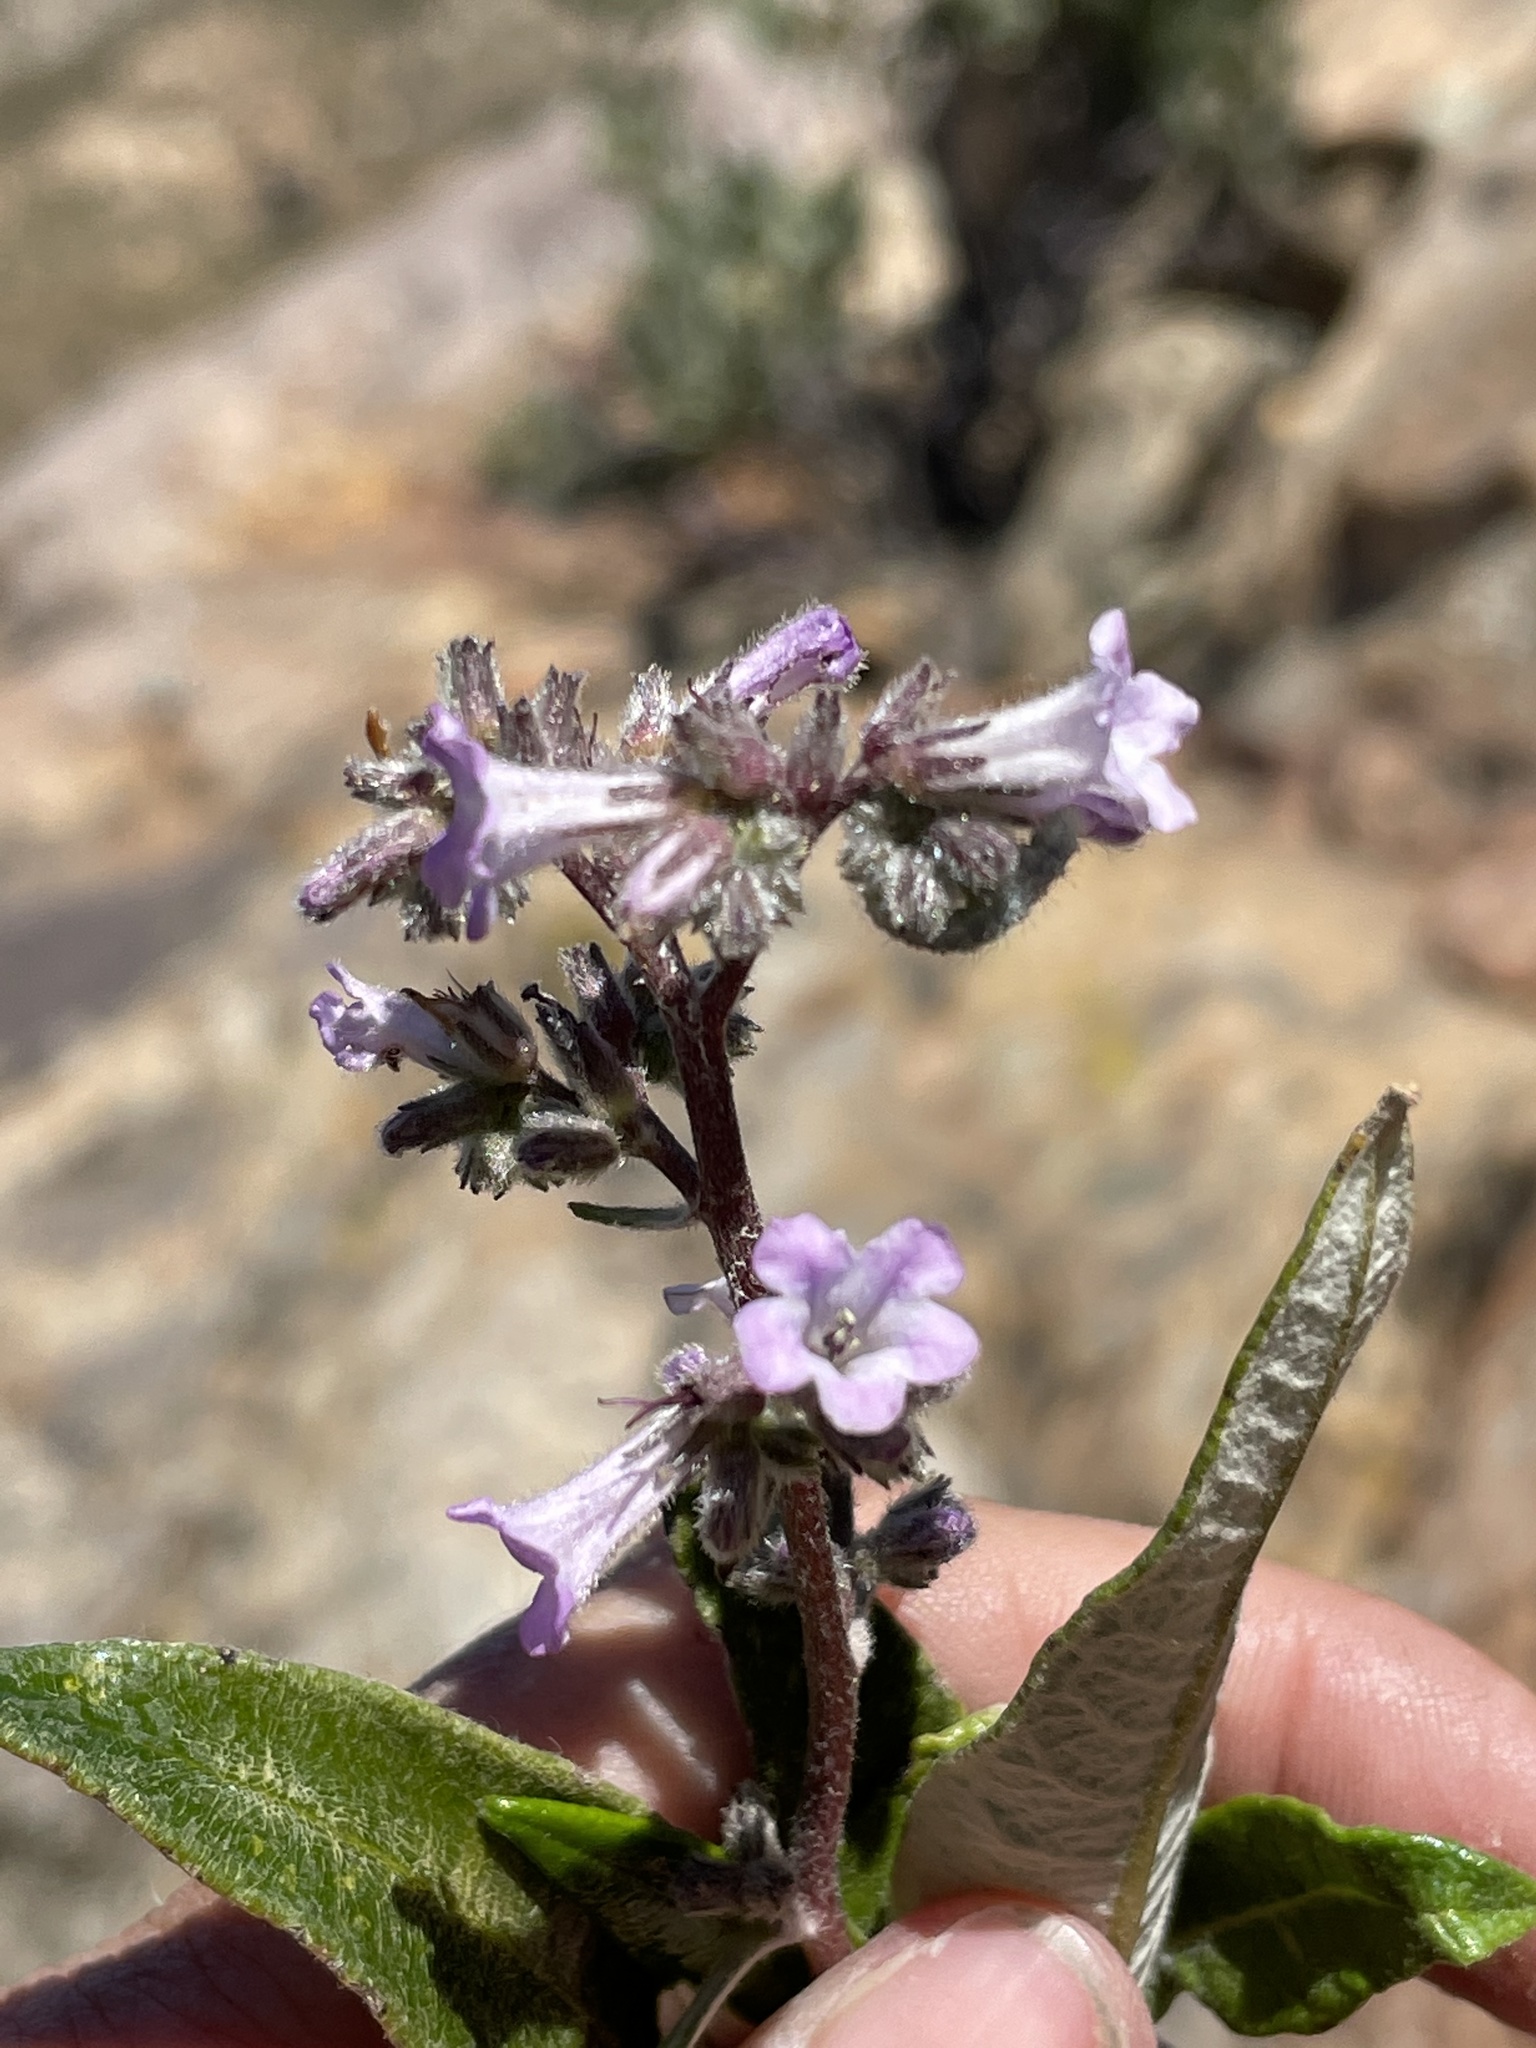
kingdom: Plantae
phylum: Tracheophyta
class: Magnoliopsida
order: Boraginales
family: Namaceae
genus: Eriodictyon
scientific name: Eriodictyon trichocalyx
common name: Hairy yerba-santa
